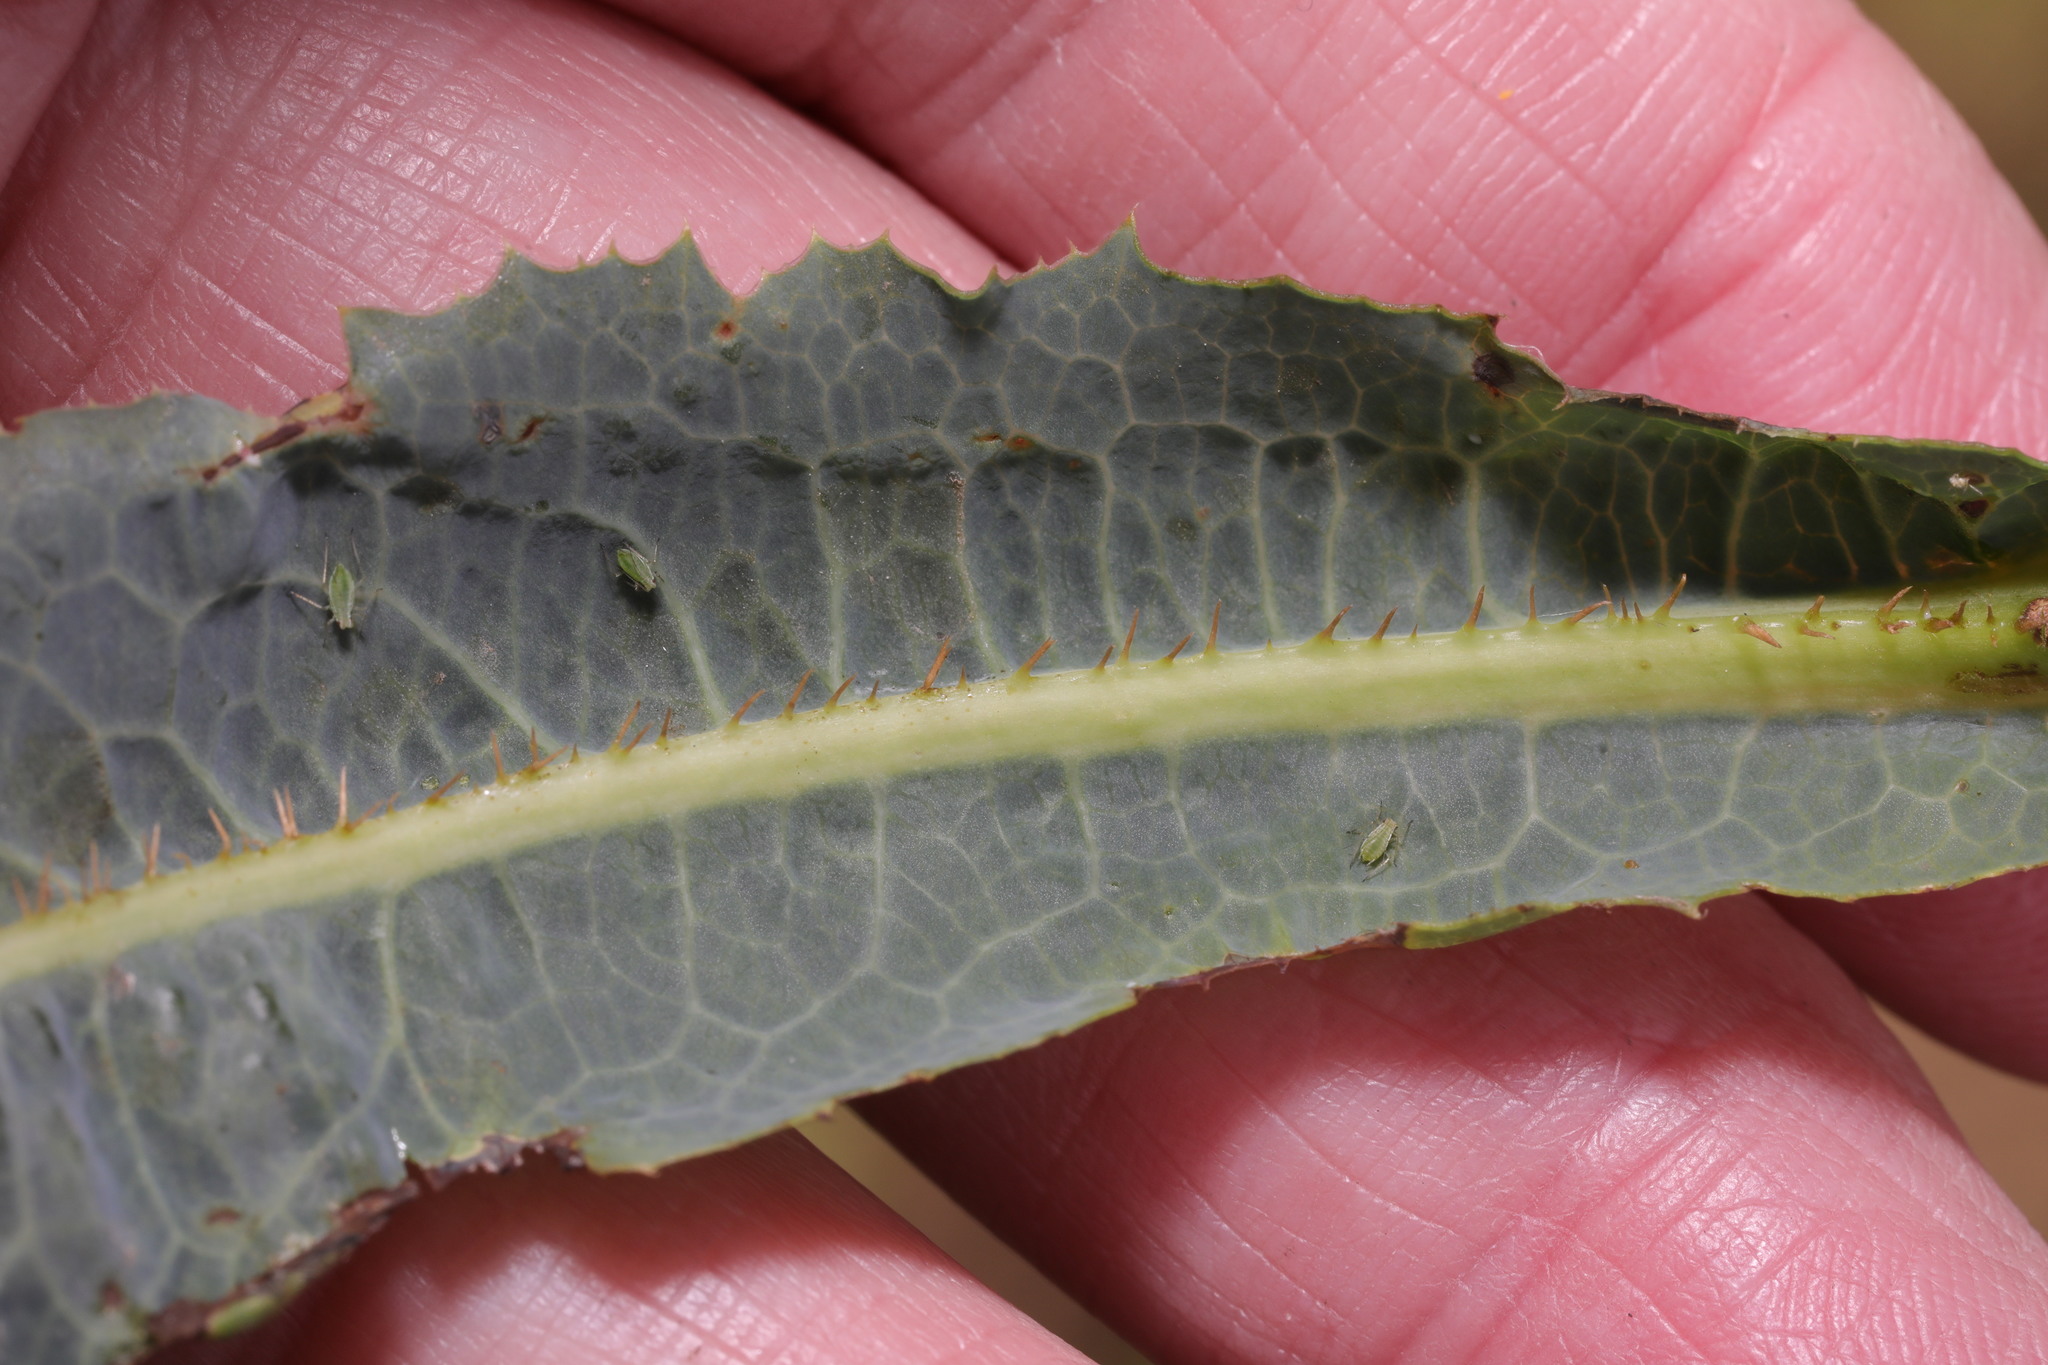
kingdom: Plantae
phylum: Tracheophyta
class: Magnoliopsida
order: Asterales
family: Asteraceae
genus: Lactuca
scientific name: Lactuca serriola
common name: Prickly lettuce
